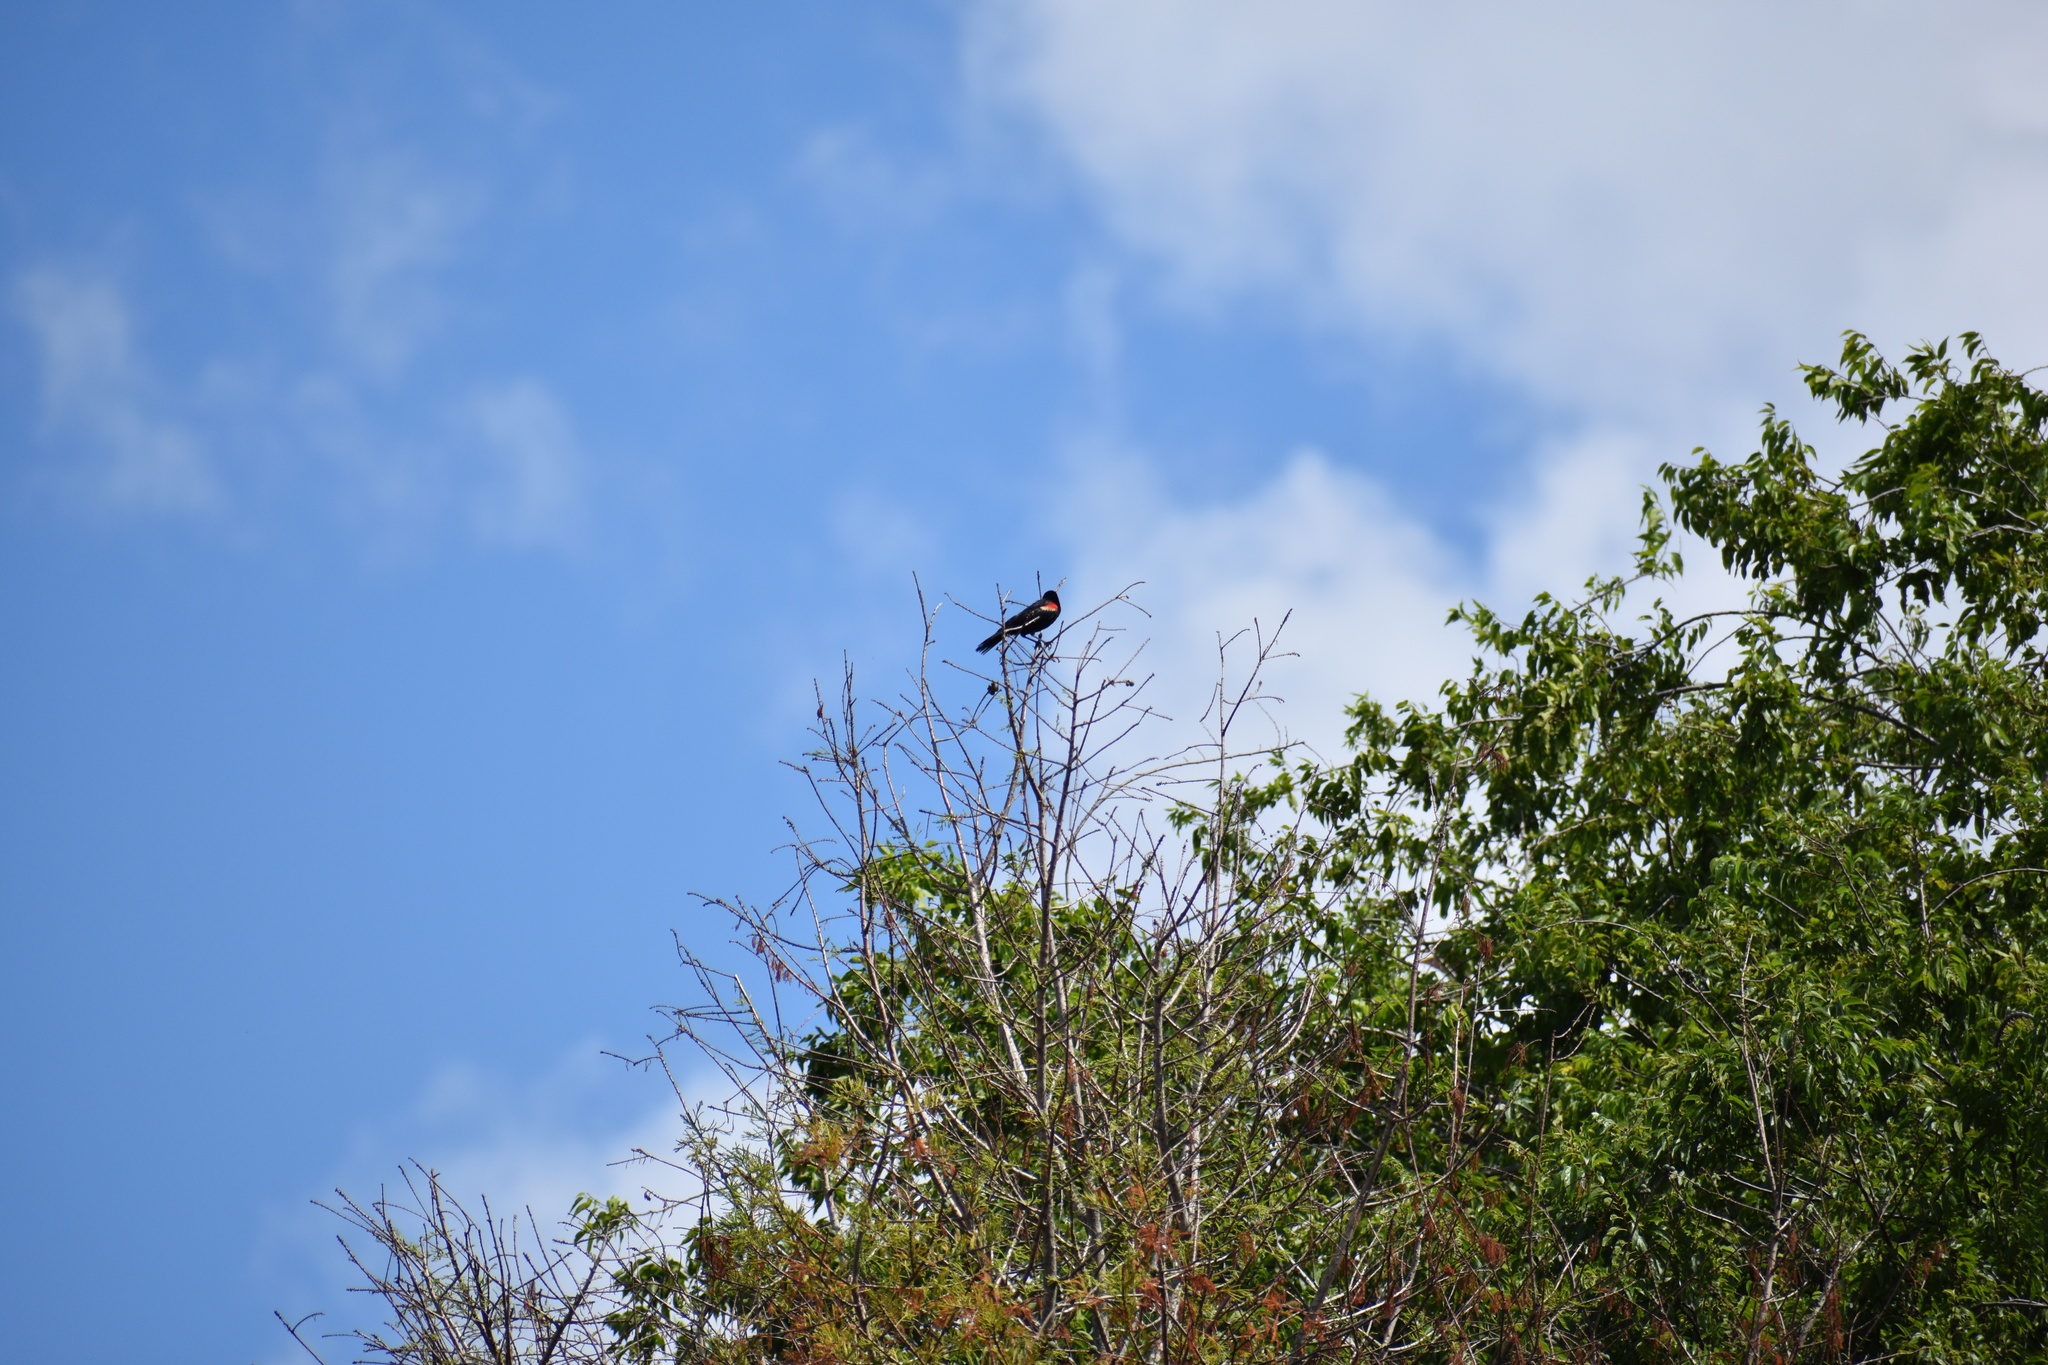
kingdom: Animalia
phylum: Chordata
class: Aves
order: Passeriformes
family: Icteridae
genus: Agelaius
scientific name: Agelaius phoeniceus
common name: Red-winged blackbird
